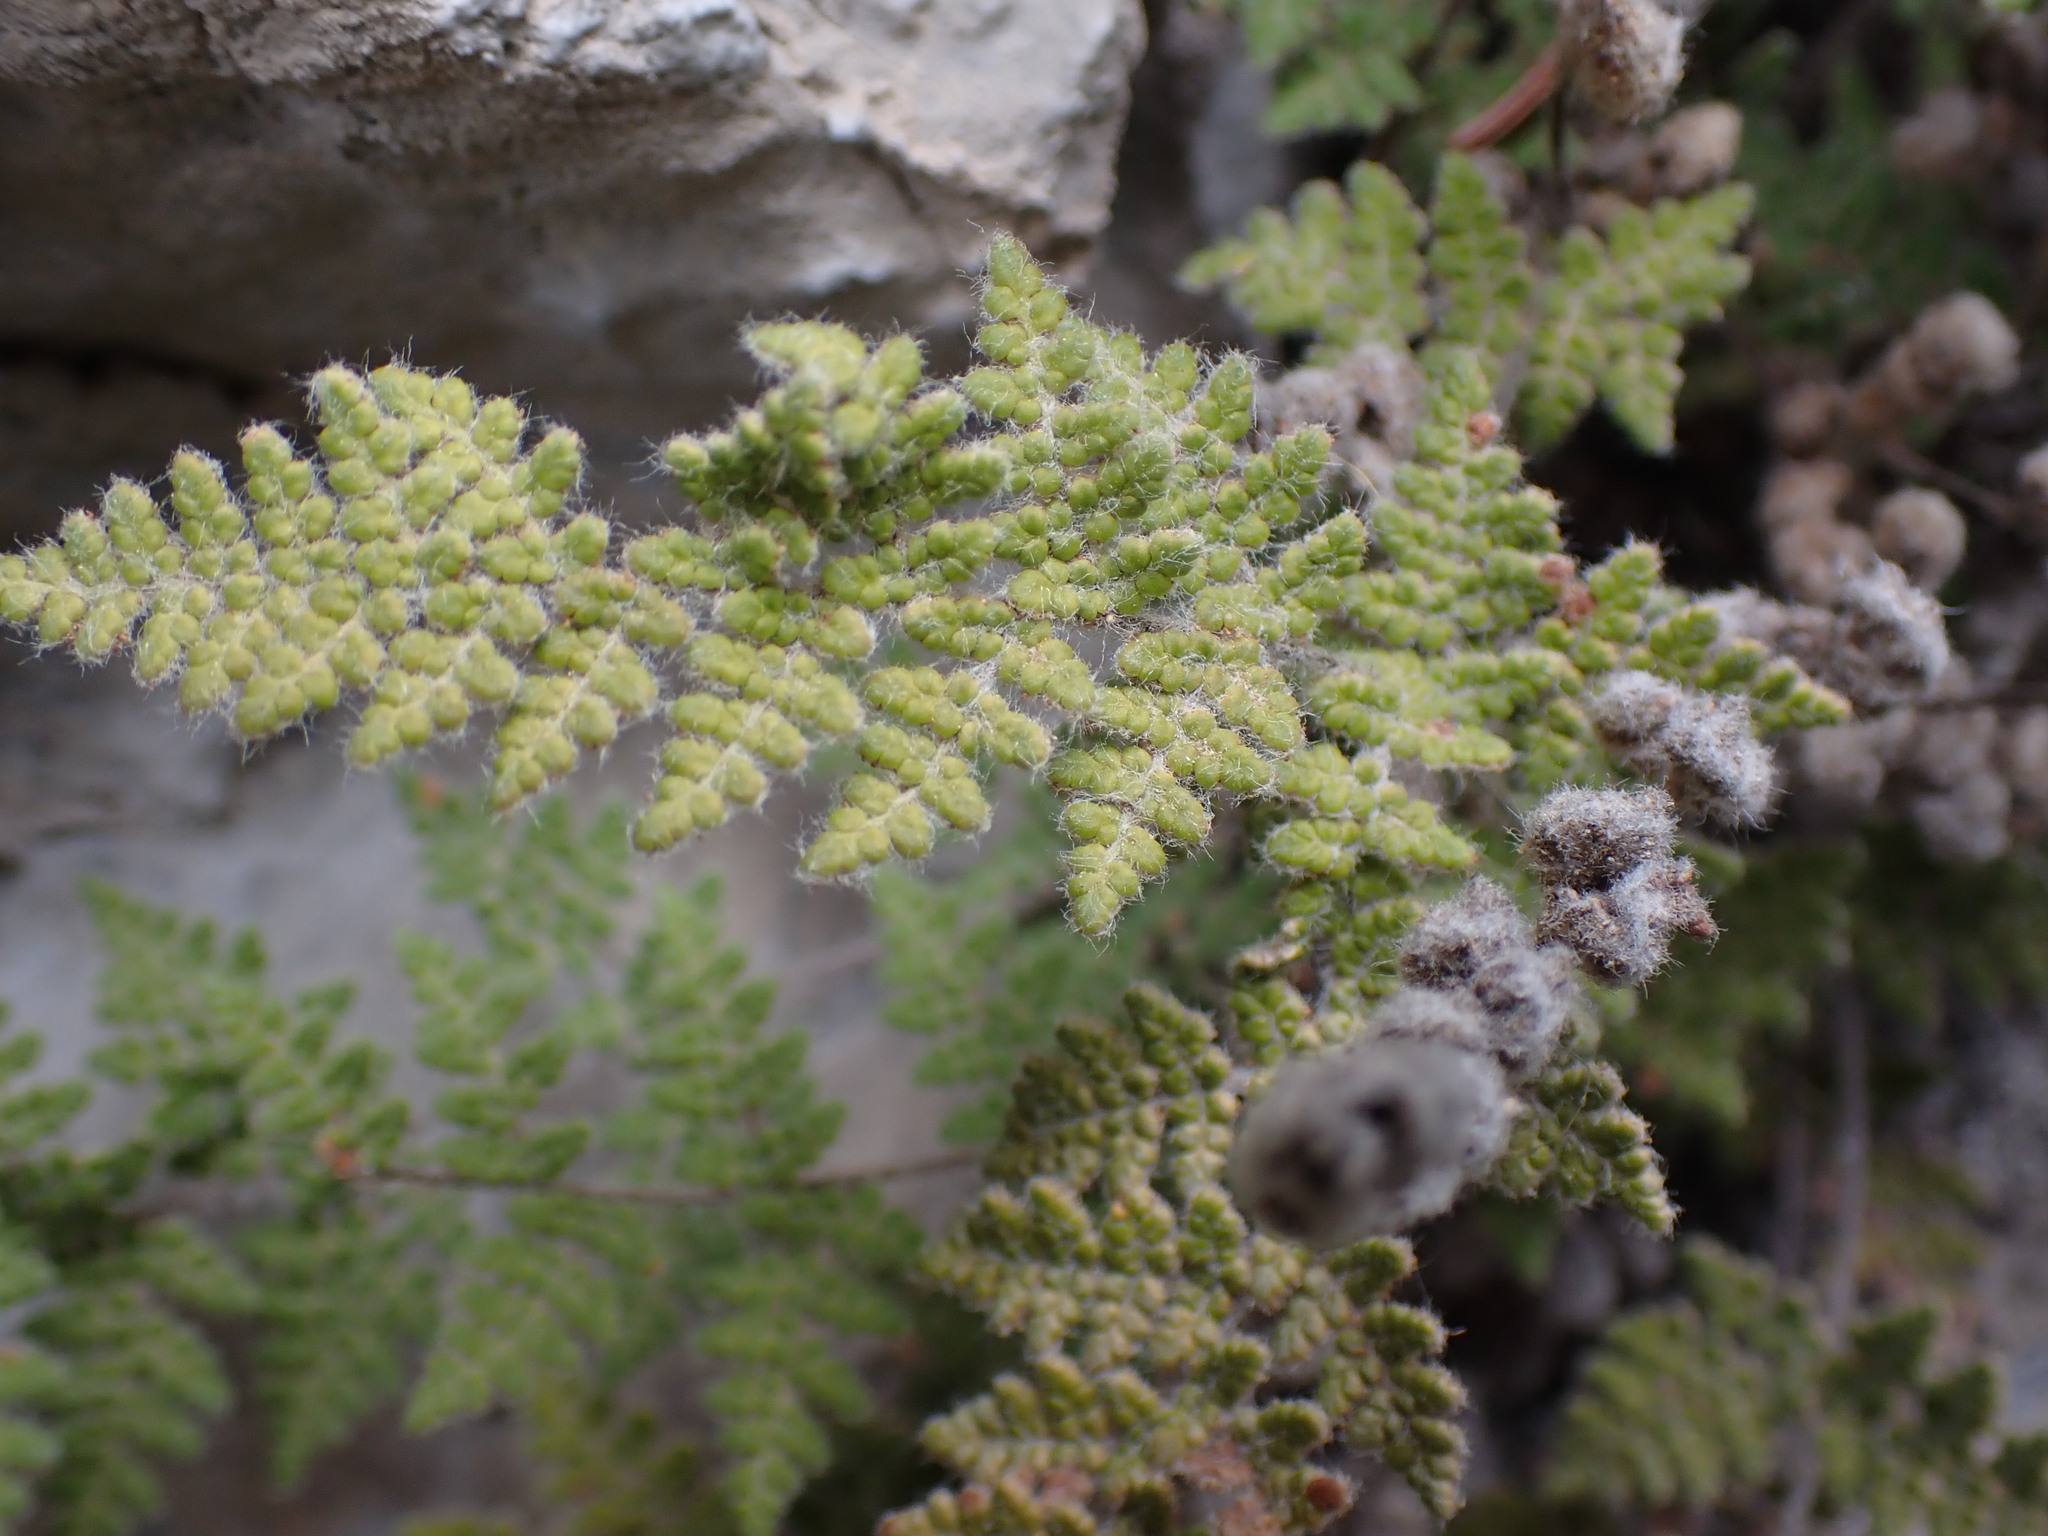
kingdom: Plantae
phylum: Tracheophyta
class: Polypodiopsida
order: Polypodiales
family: Pteridaceae
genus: Myriopteris
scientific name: Myriopteris gracilis
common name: Fee's lip fern
